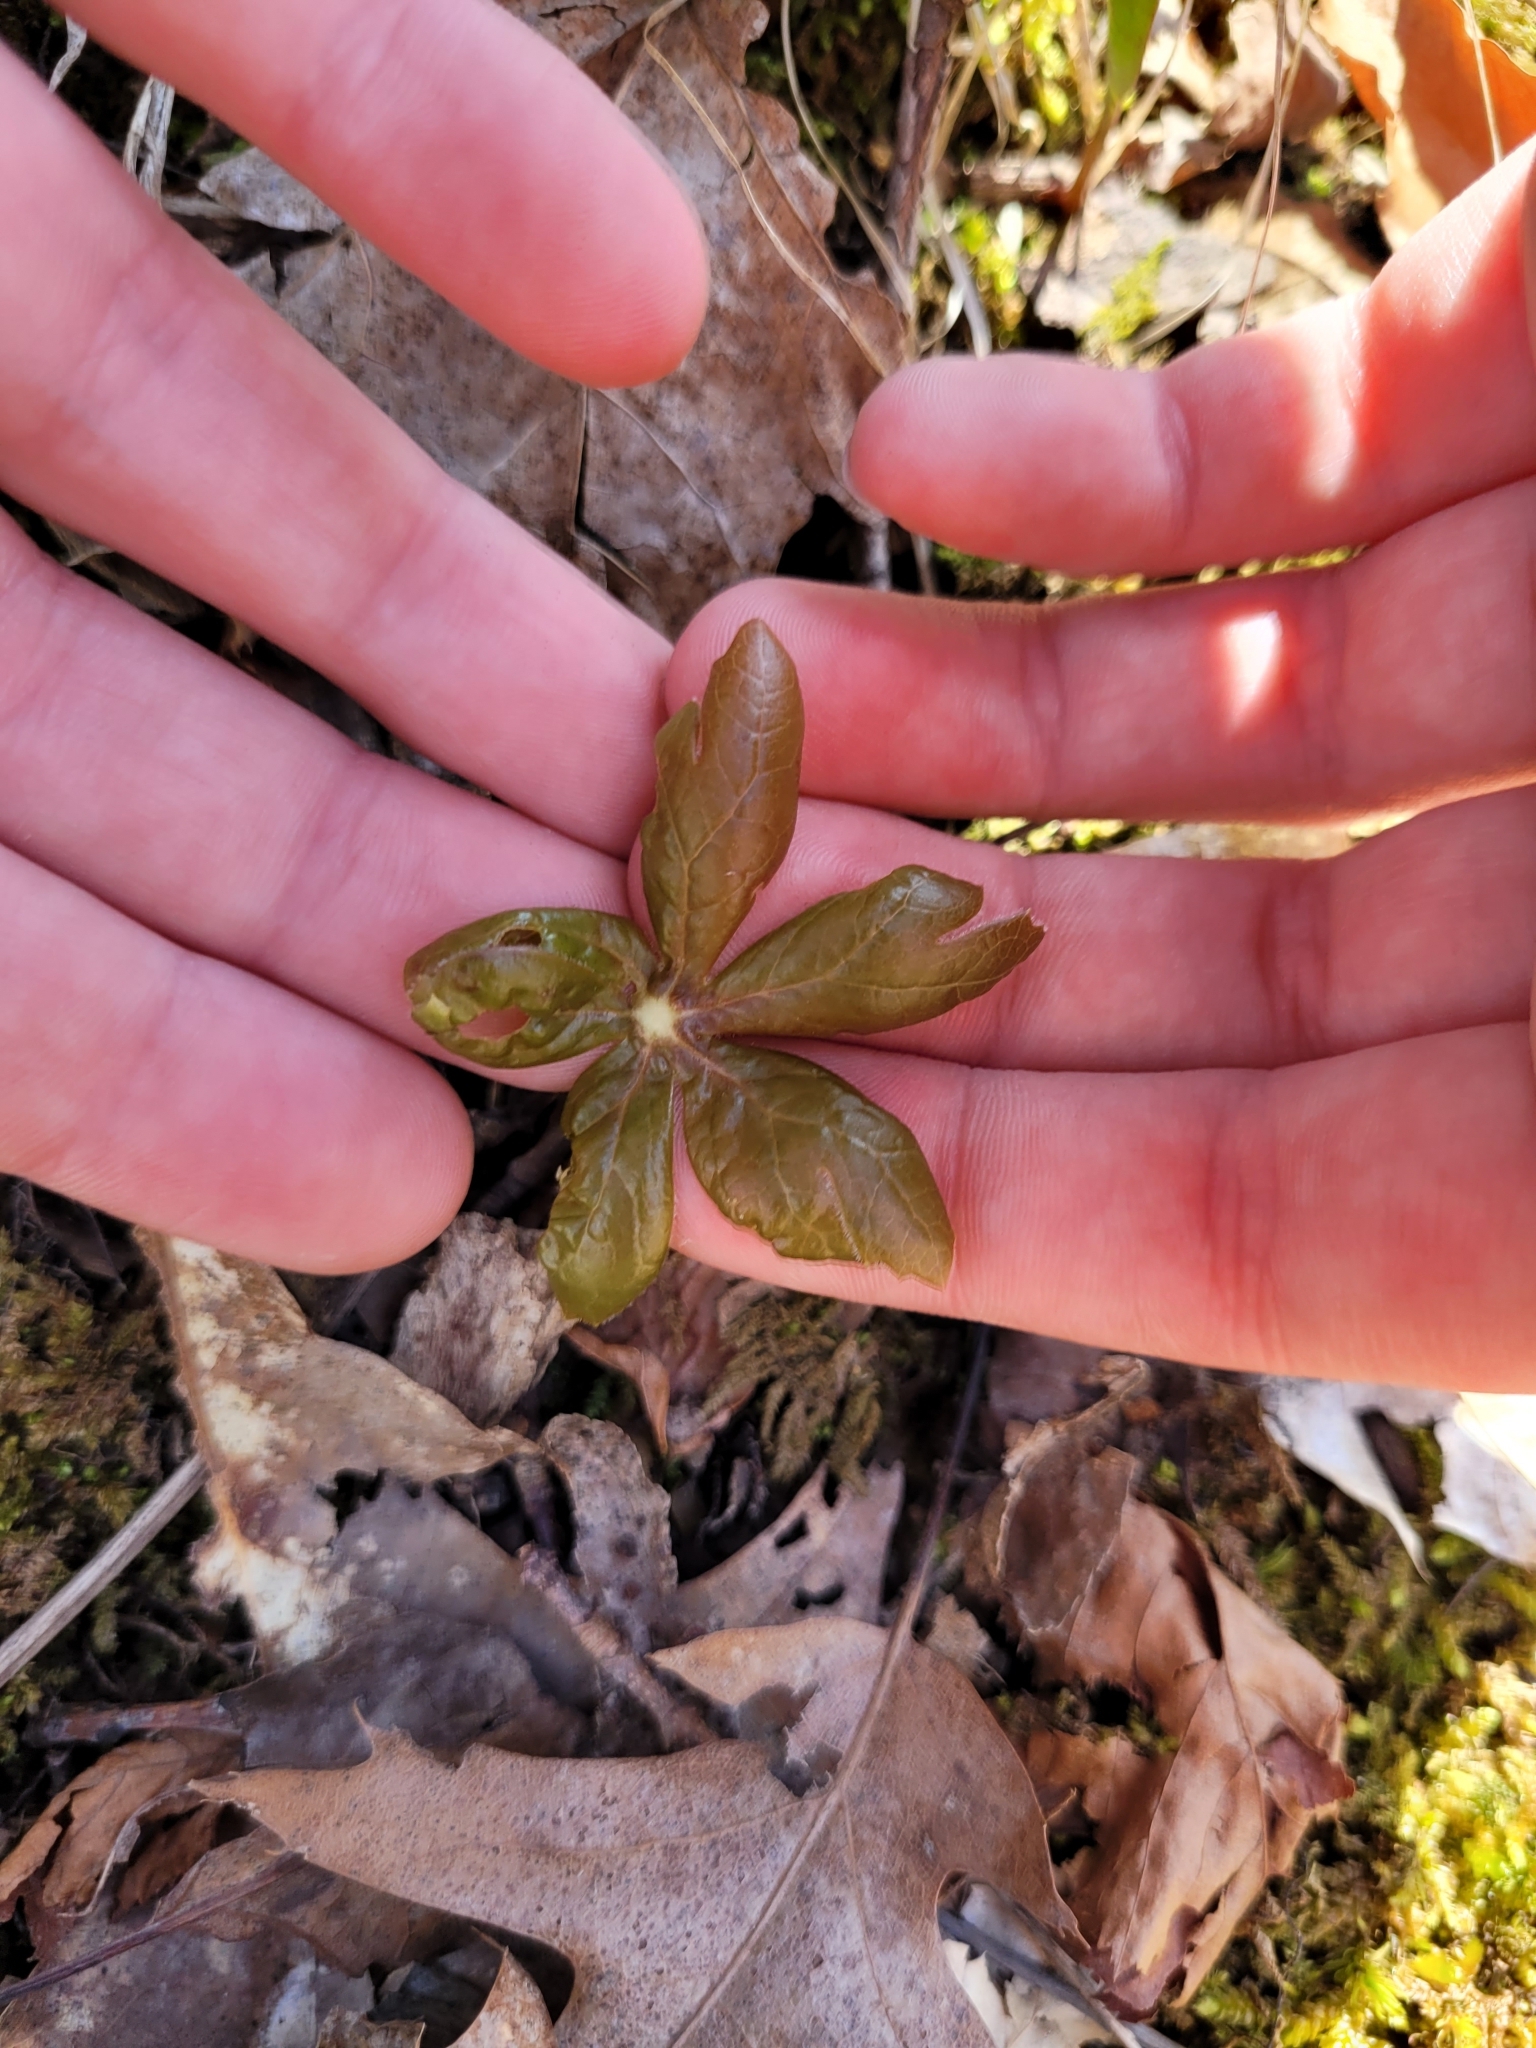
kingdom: Plantae
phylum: Tracheophyta
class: Magnoliopsida
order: Ranunculales
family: Berberidaceae
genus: Podophyllum
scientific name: Podophyllum peltatum
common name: Wild mandrake
